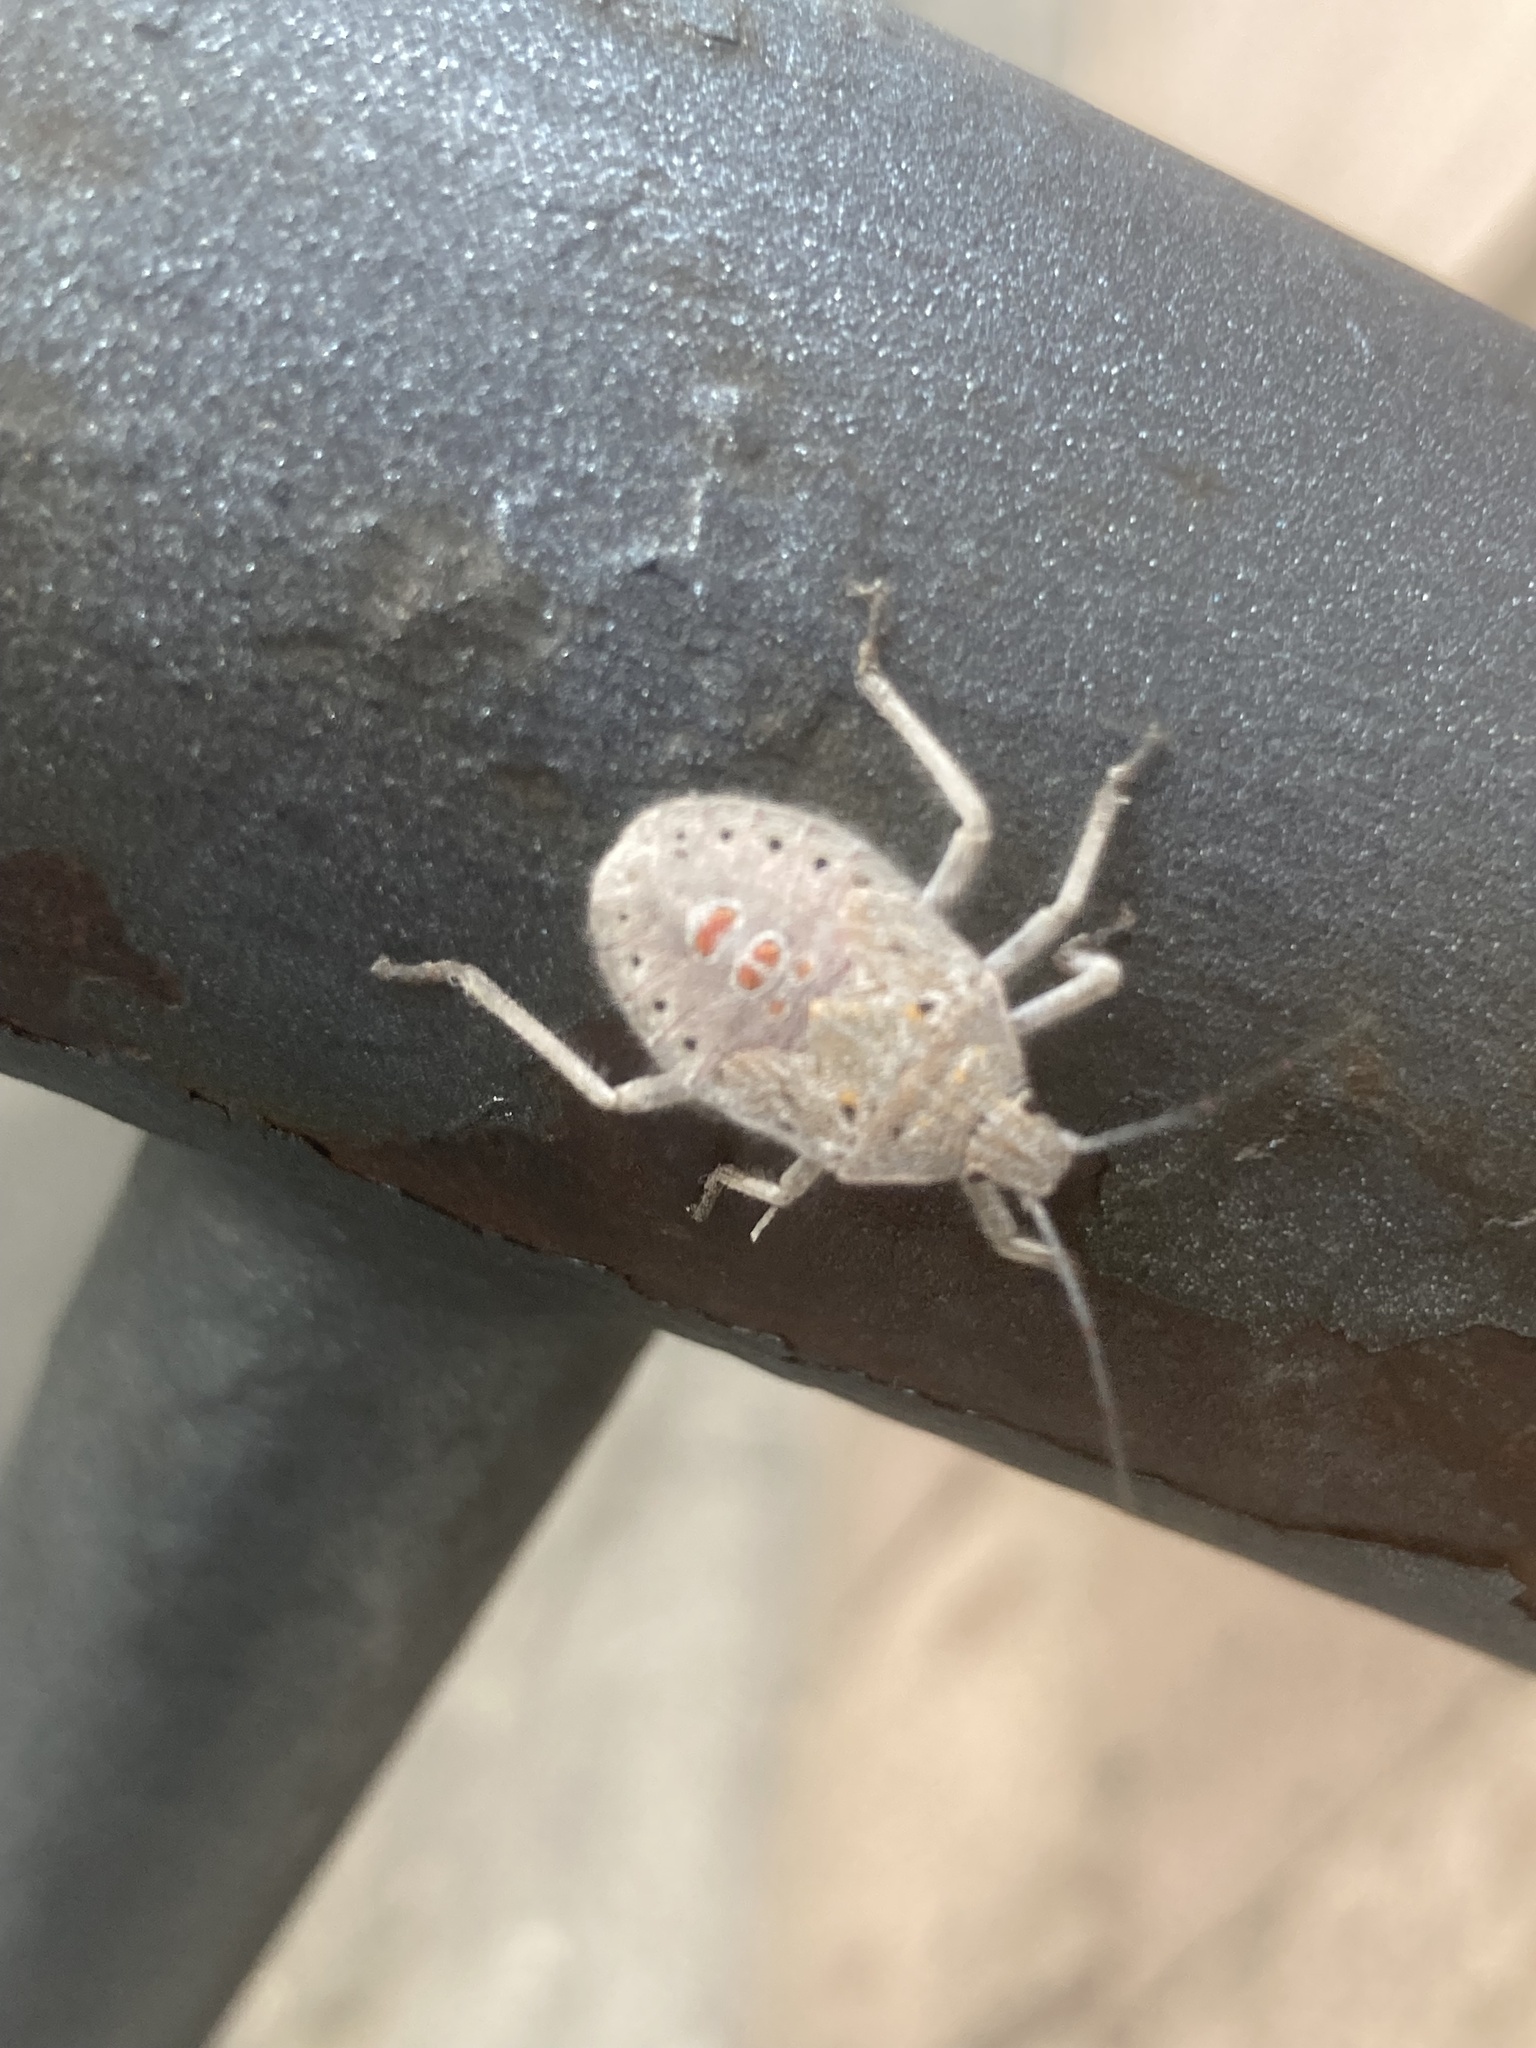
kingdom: Animalia
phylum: Arthropoda
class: Insecta
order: Hemiptera
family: Pentatomidae
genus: Apodiphus
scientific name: Apodiphus amygdali
